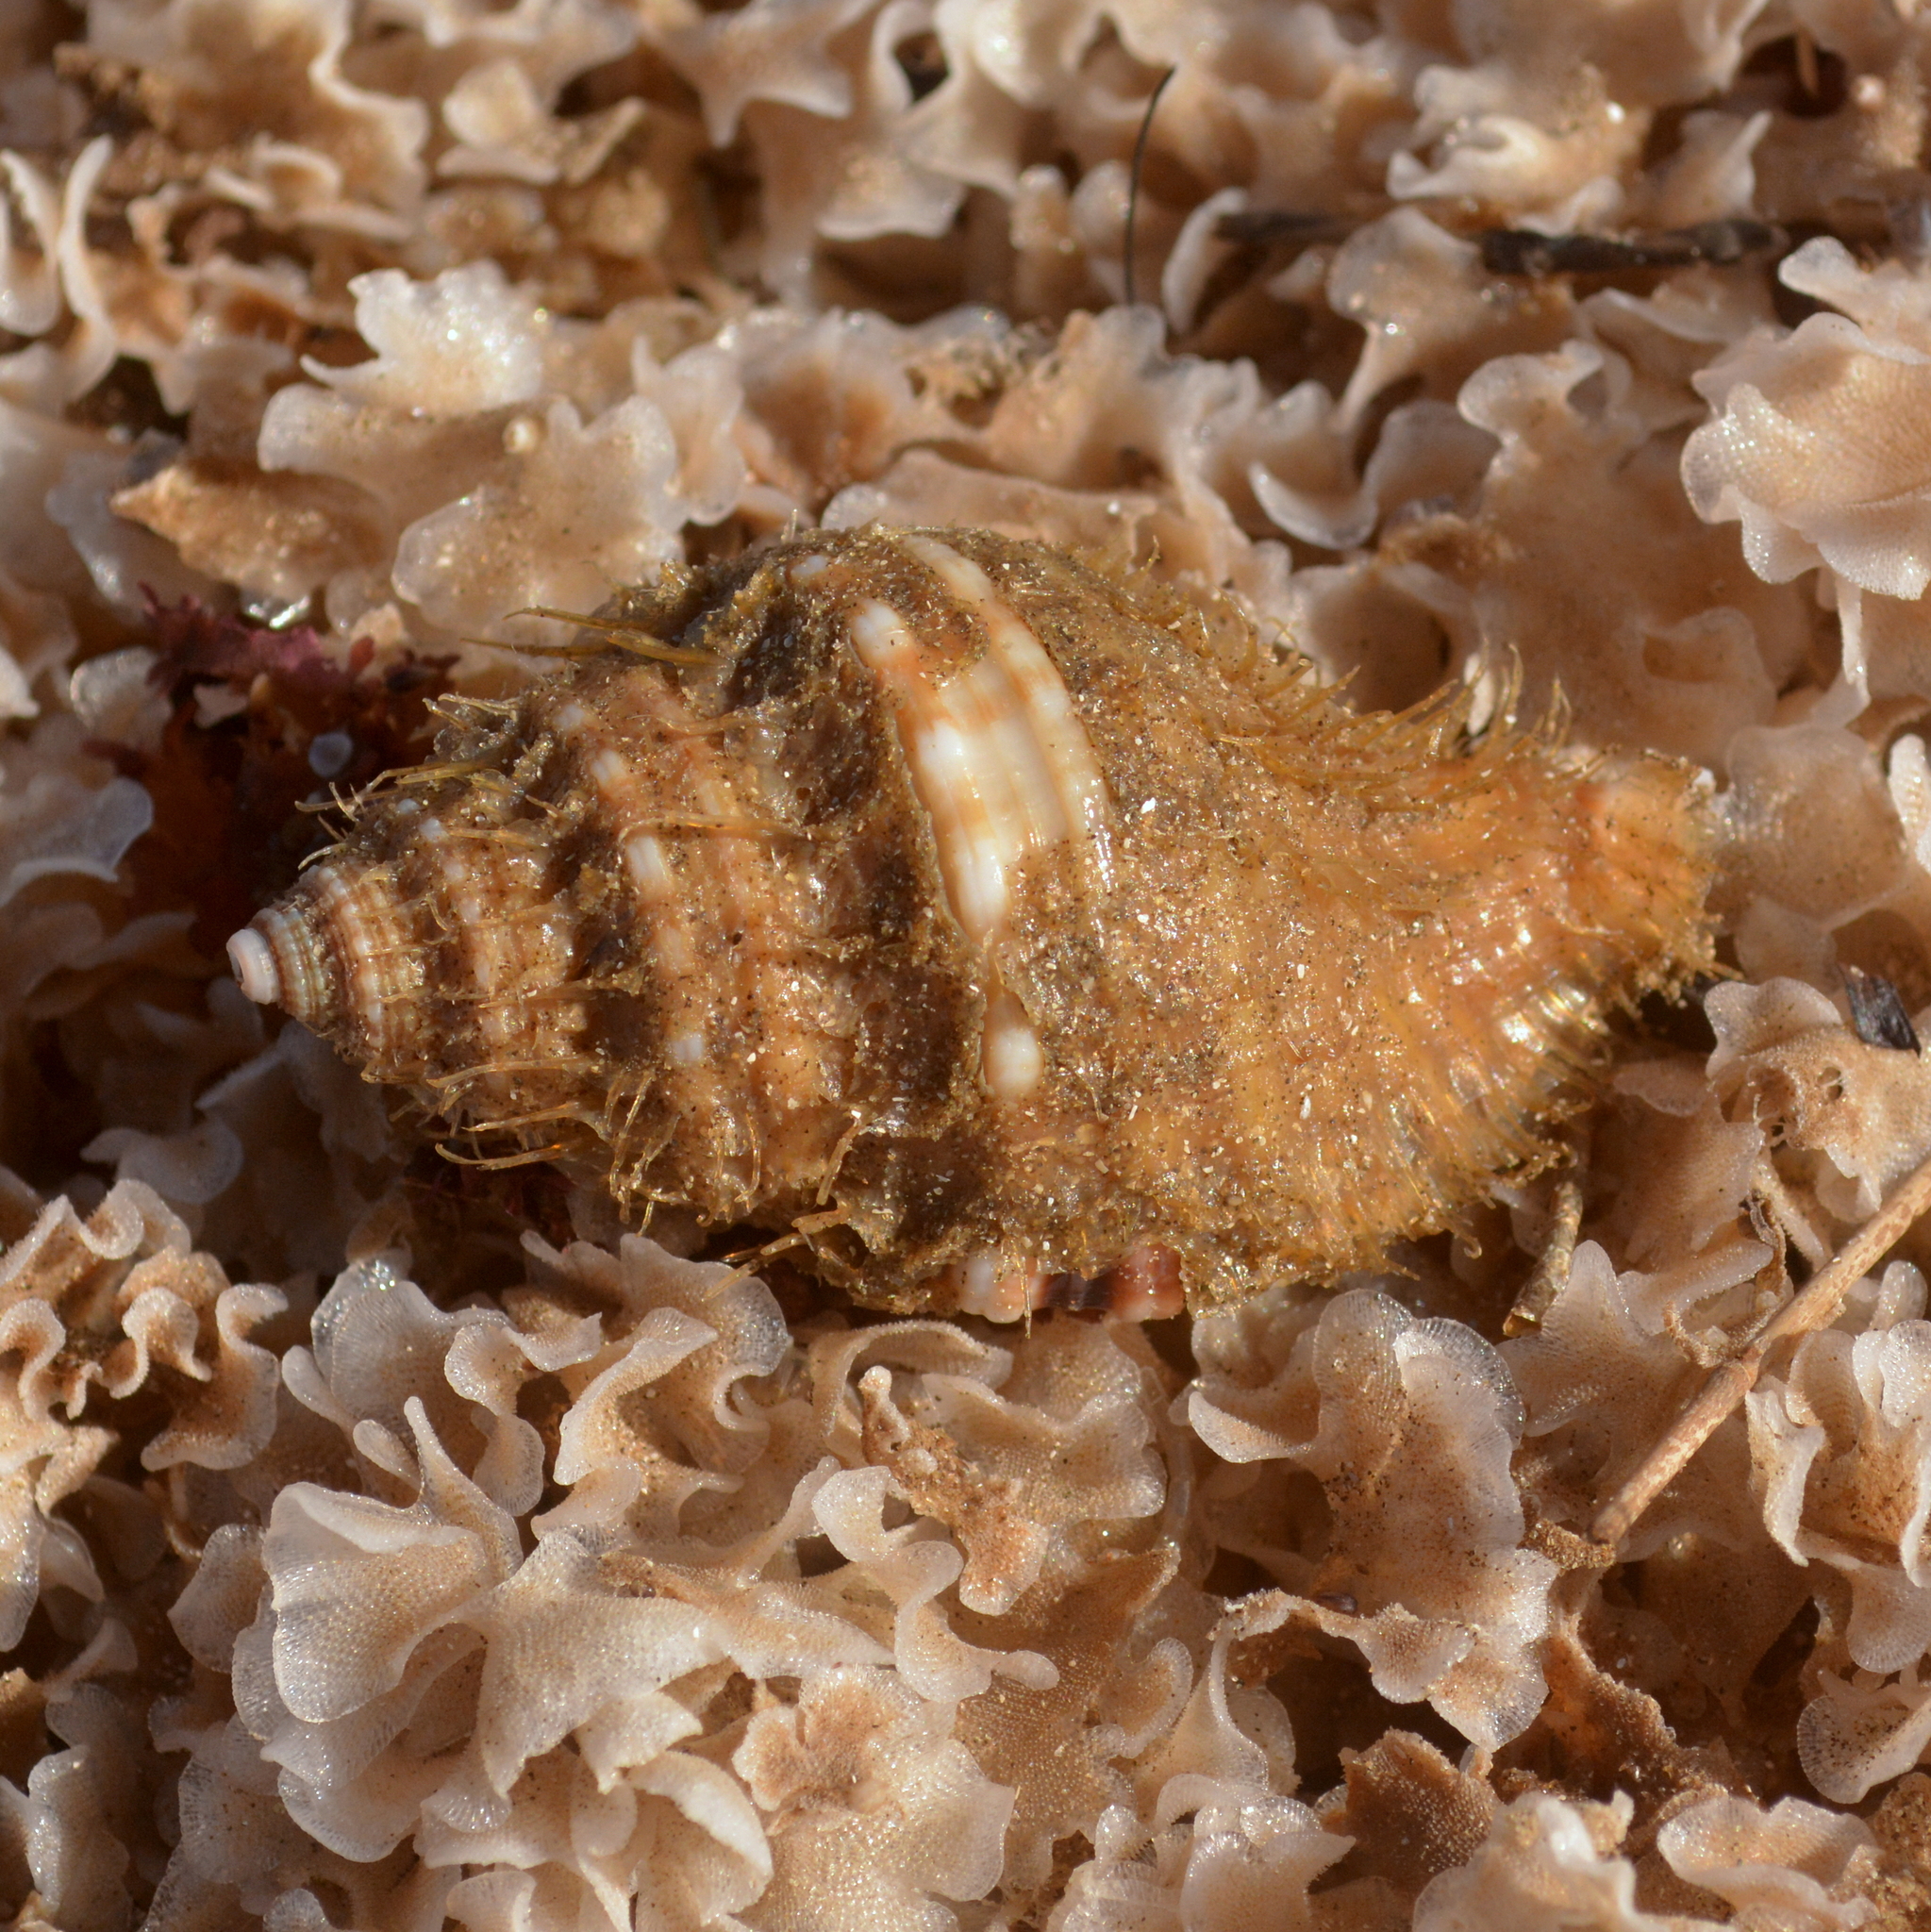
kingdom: Animalia
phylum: Mollusca
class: Gastropoda
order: Littorinimorpha
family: Cymatiidae
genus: Monoplex
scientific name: Monoplex parthenopeus
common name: Giant triton
